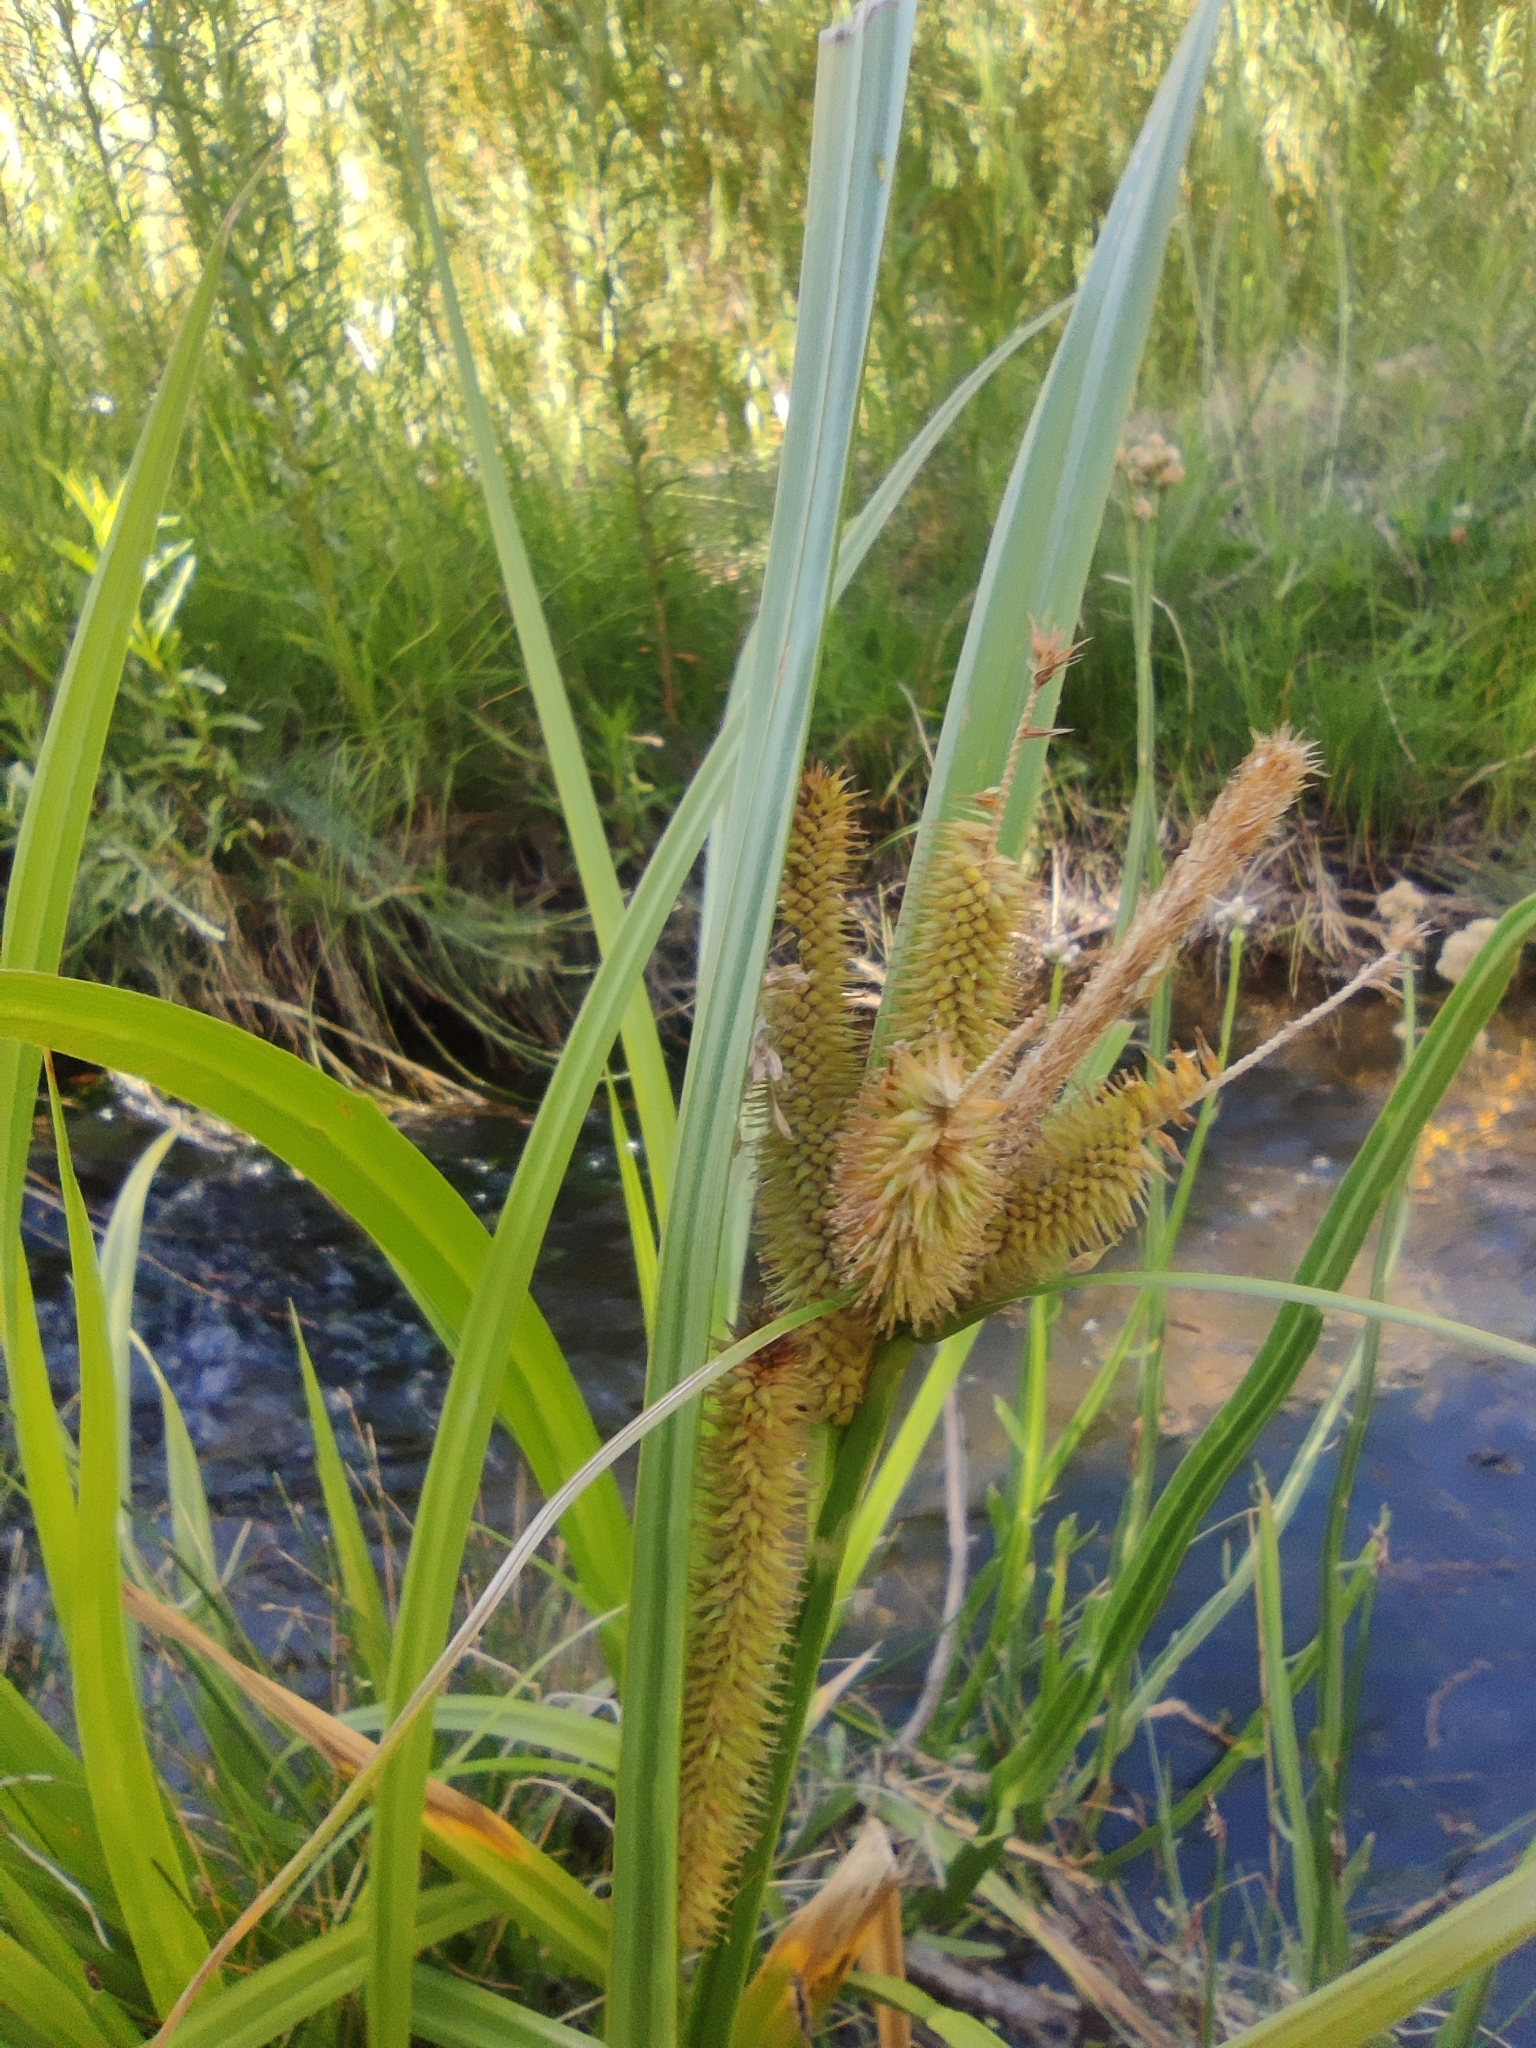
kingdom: Plantae
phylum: Tracheophyta
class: Liliopsida
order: Poales
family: Cyperaceae
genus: Carex
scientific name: Carex excelsa
